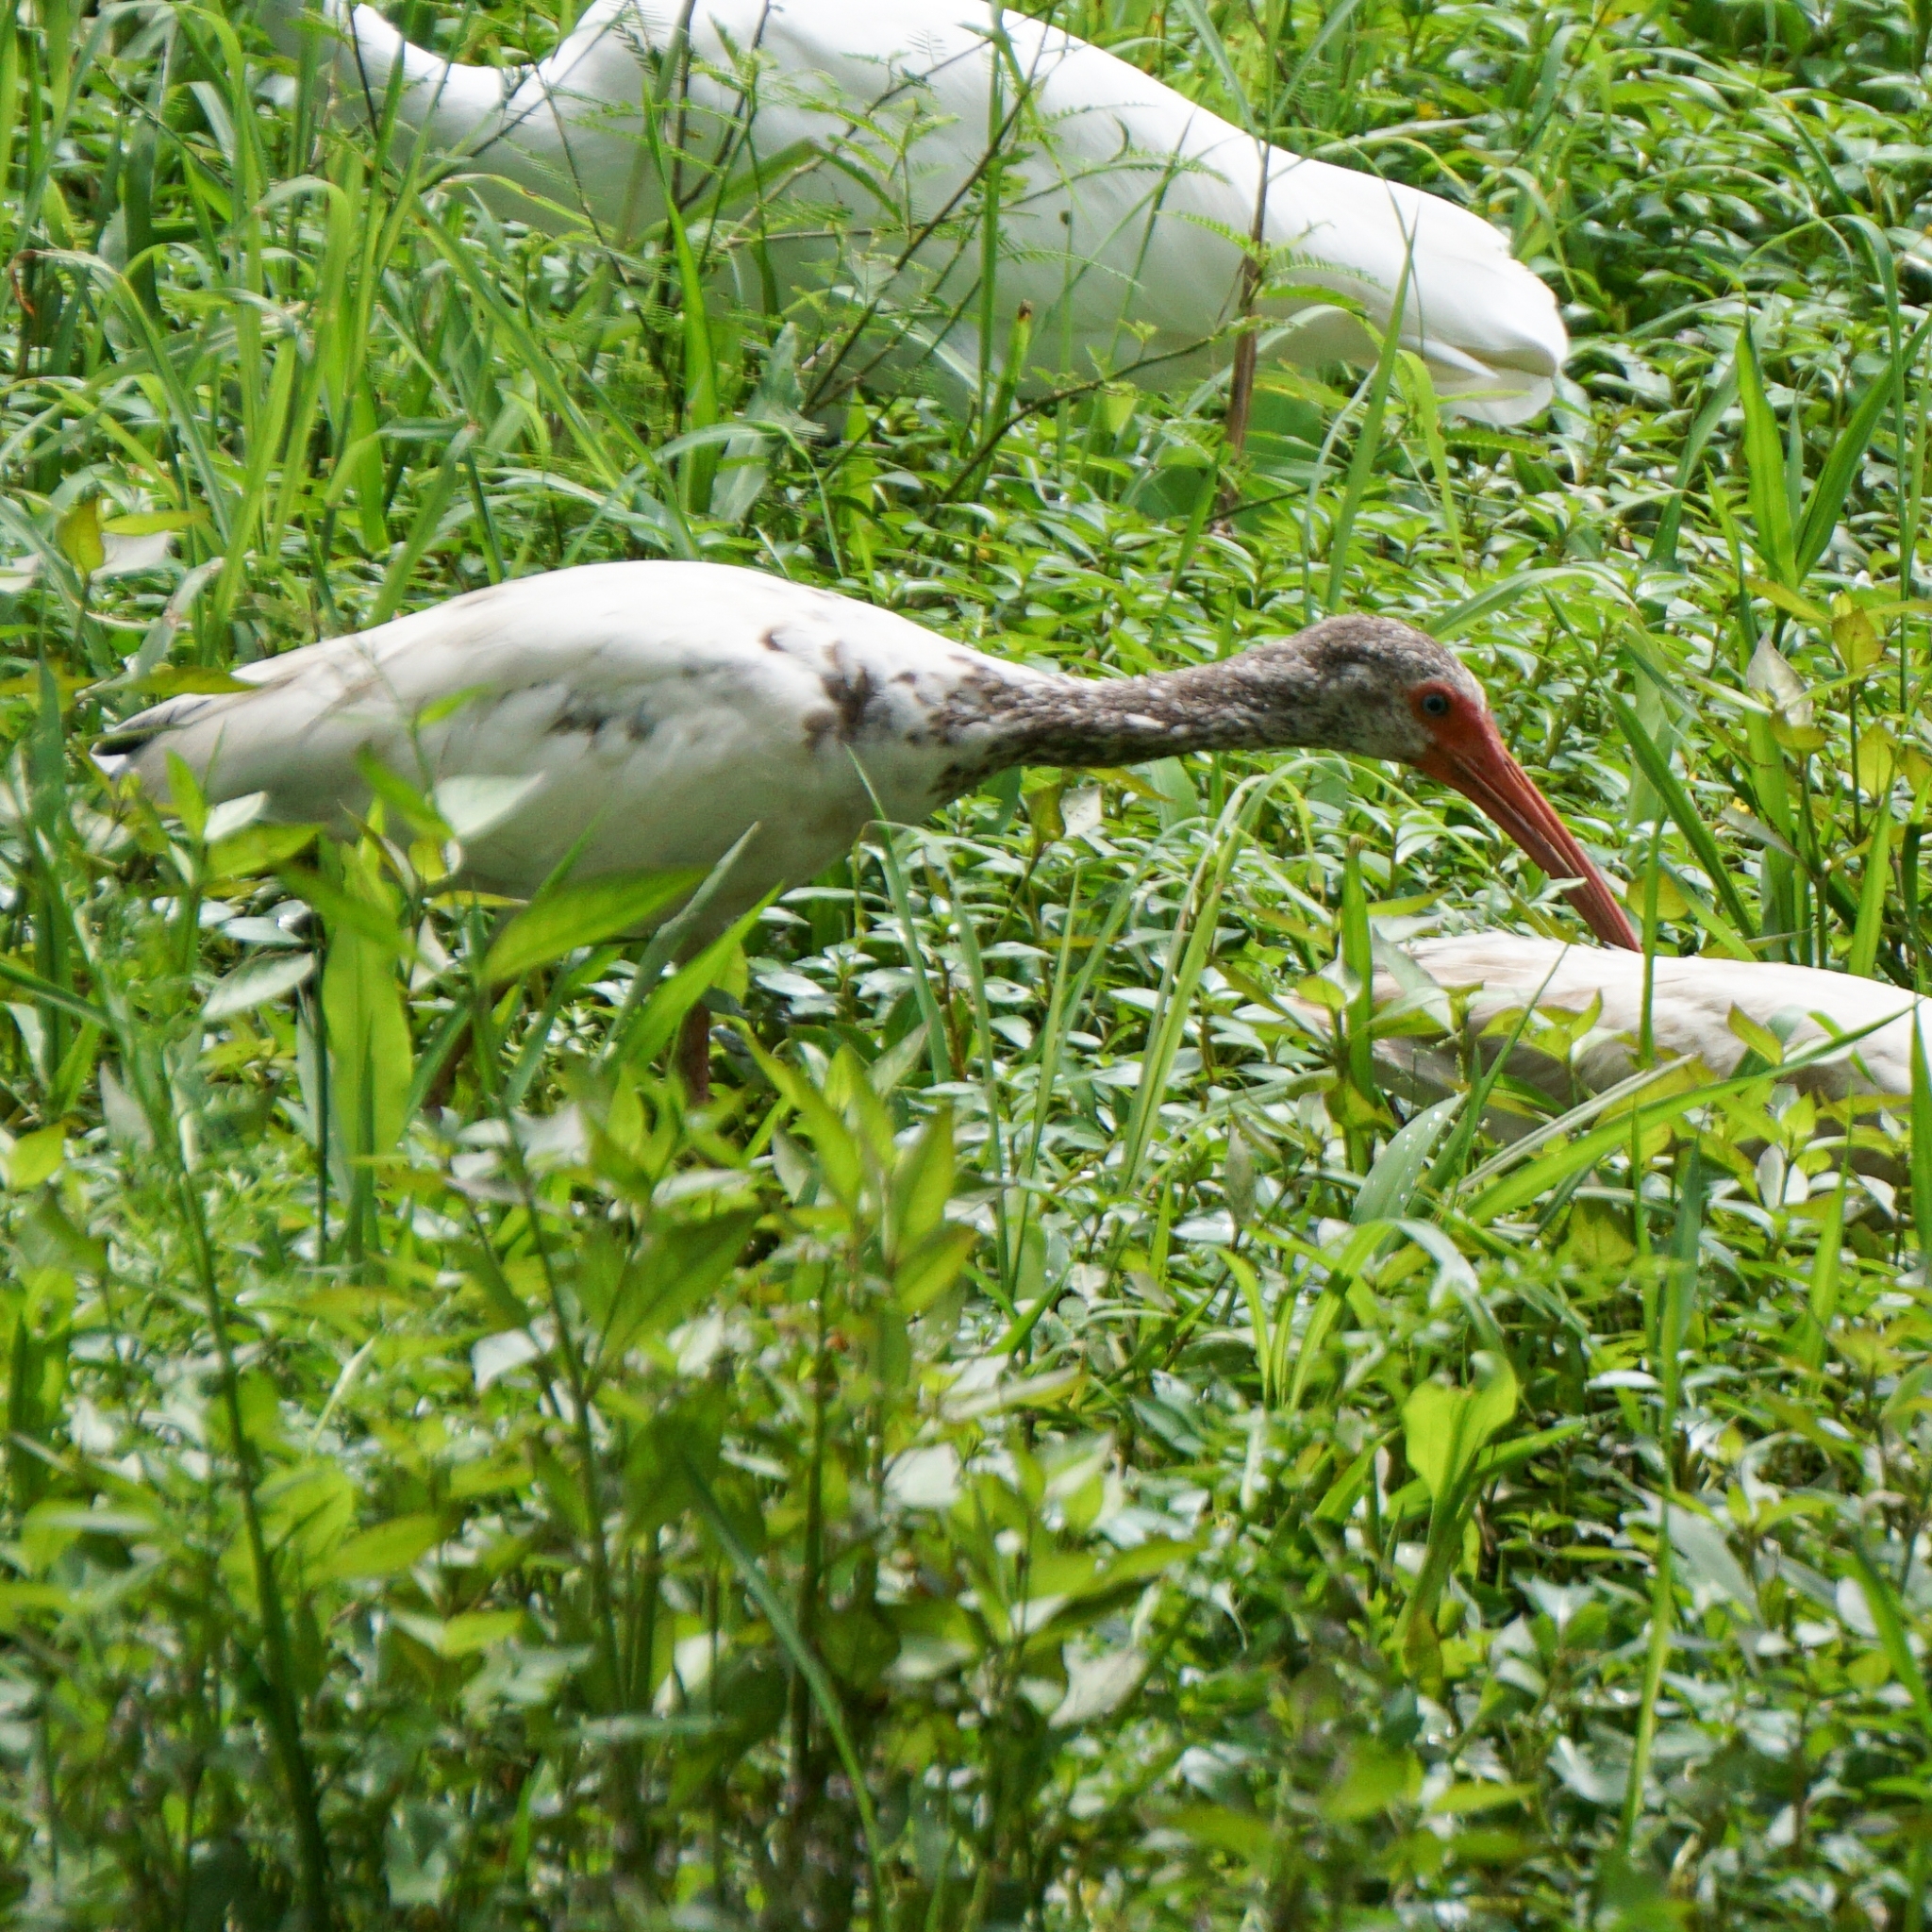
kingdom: Animalia
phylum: Chordata
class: Aves
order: Pelecaniformes
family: Threskiornithidae
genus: Eudocimus
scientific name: Eudocimus albus
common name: White ibis
